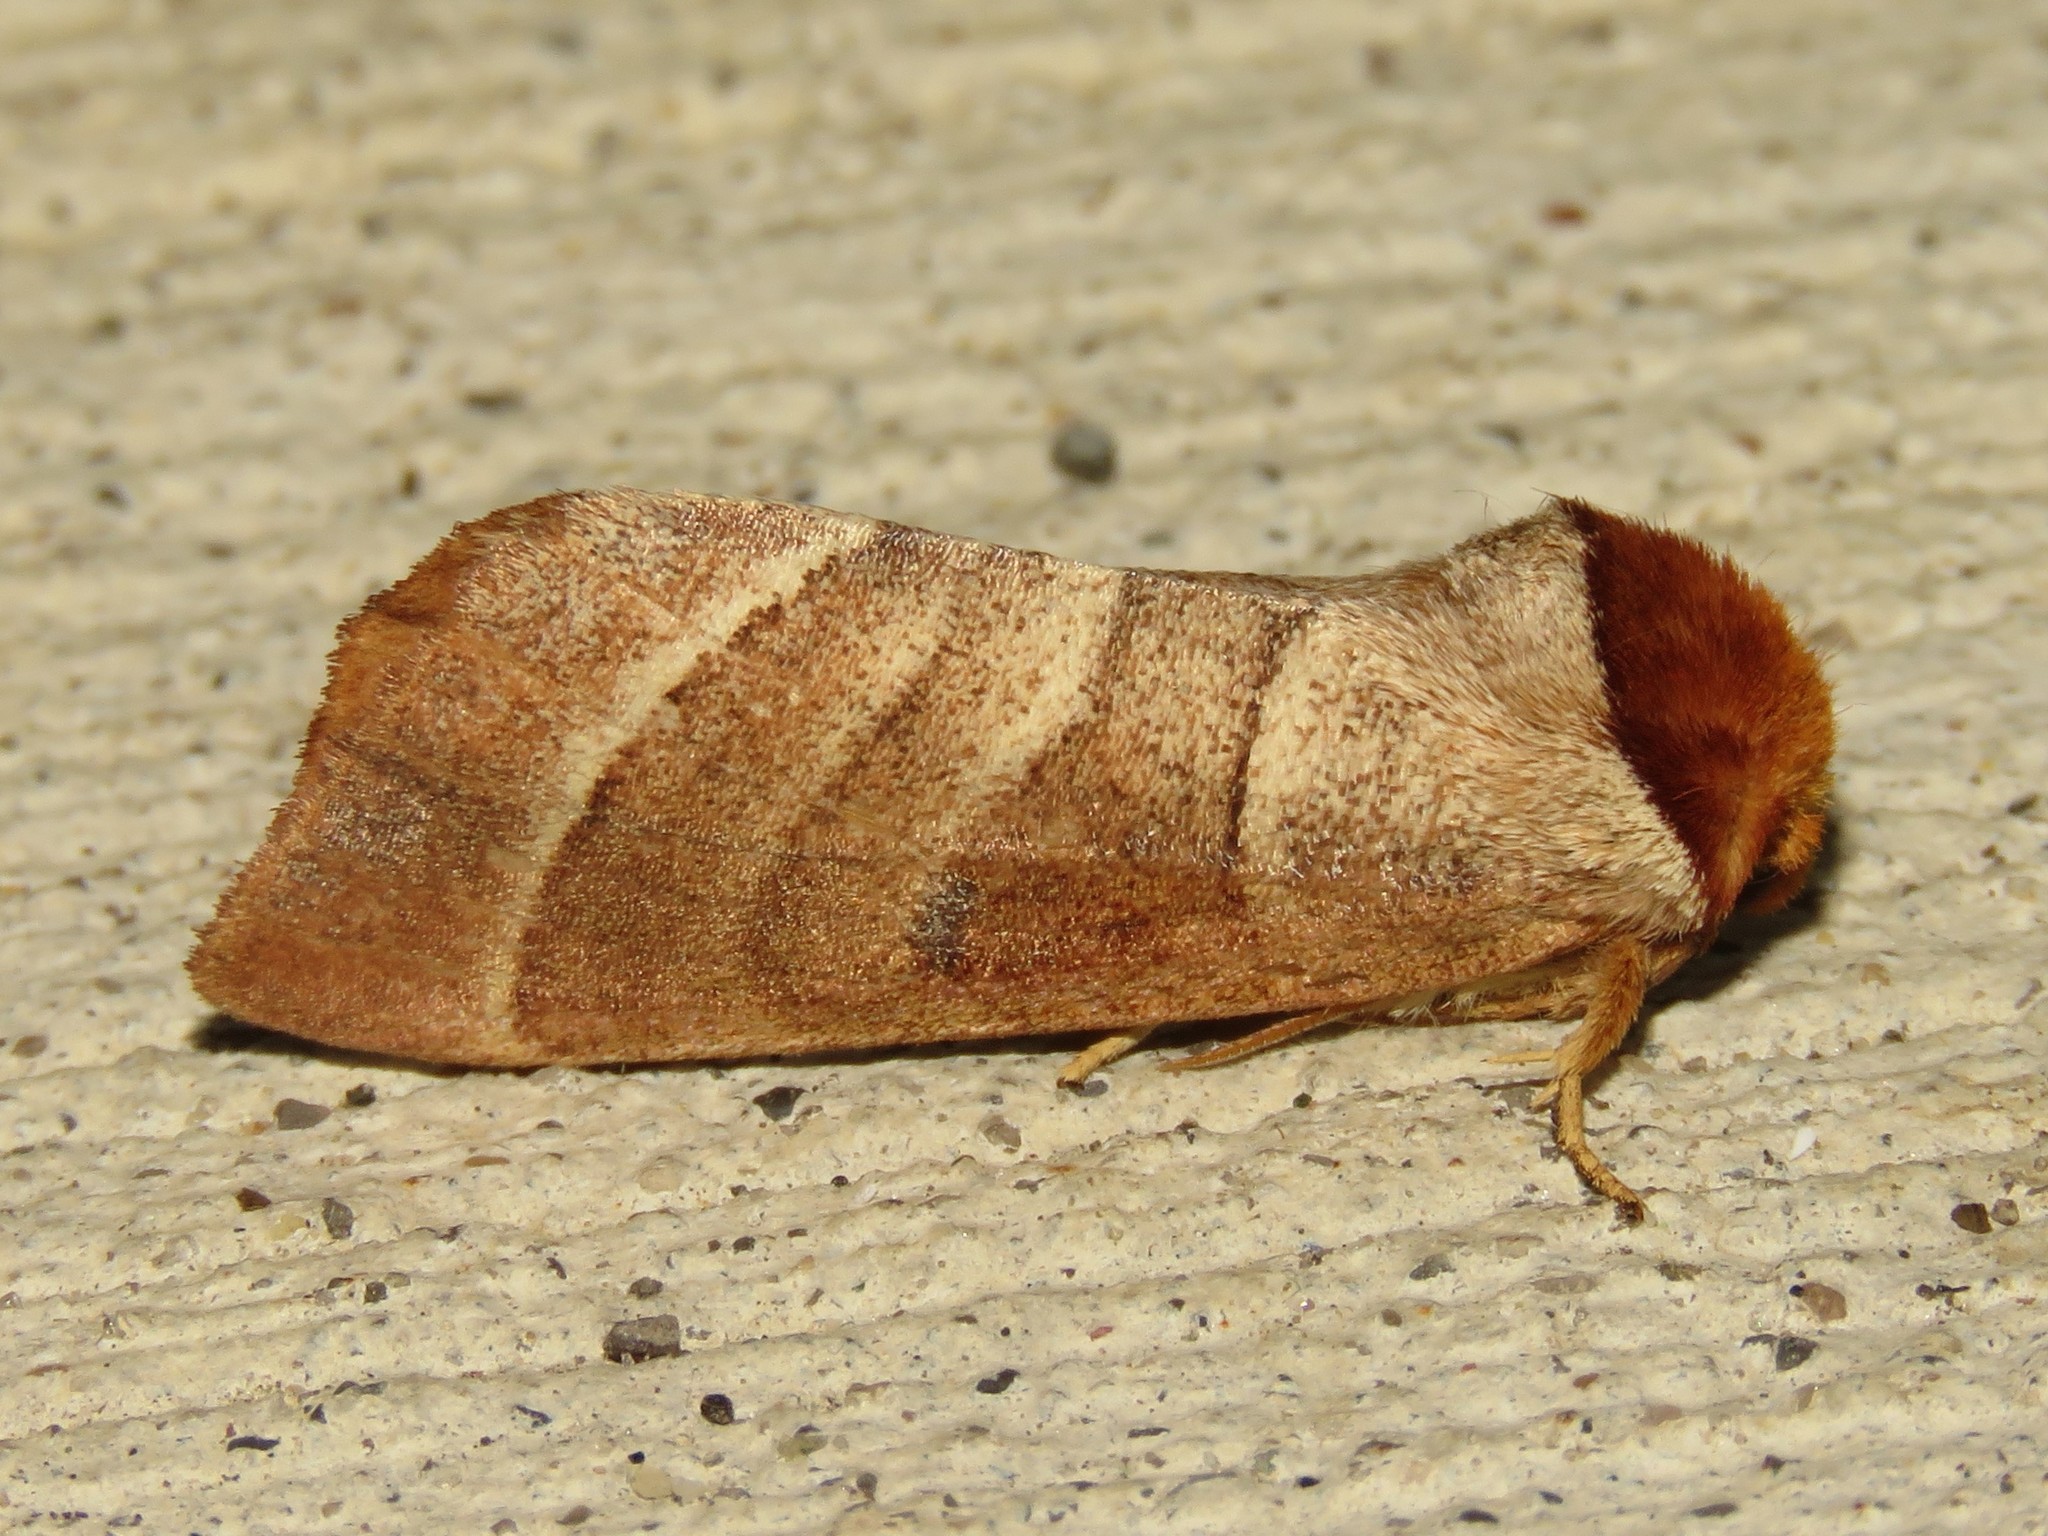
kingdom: Animalia
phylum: Arthropoda
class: Insecta
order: Lepidoptera
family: Notodontidae
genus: Datana
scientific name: Datana integerrima
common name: Walnut caterpillar
